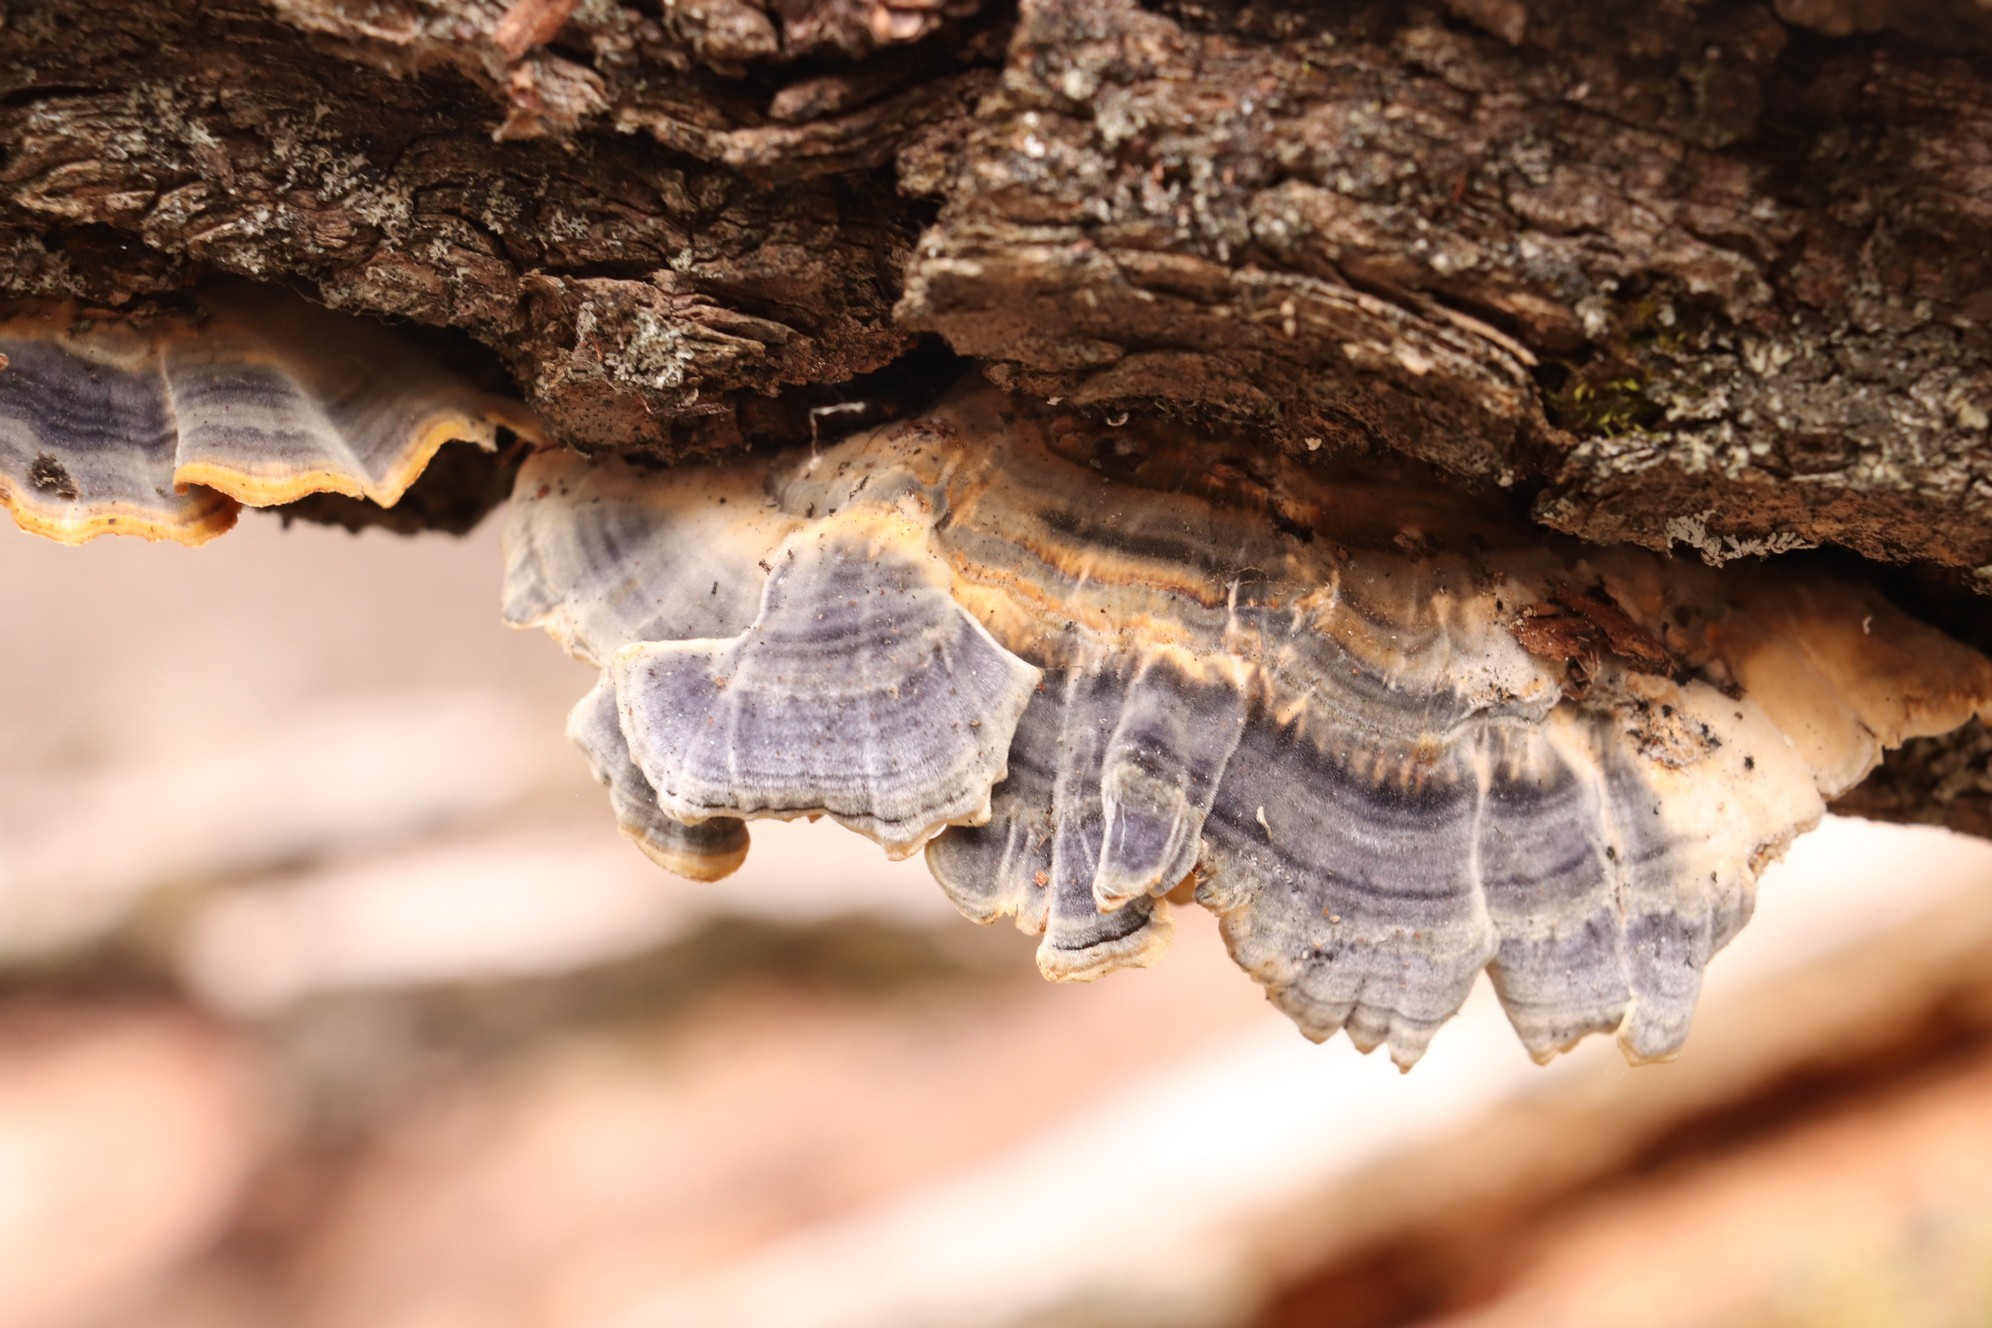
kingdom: Fungi
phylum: Basidiomycota
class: Agaricomycetes
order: Polyporales
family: Polyporaceae
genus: Trametes
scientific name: Trametes versicolor
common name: Turkeytail
